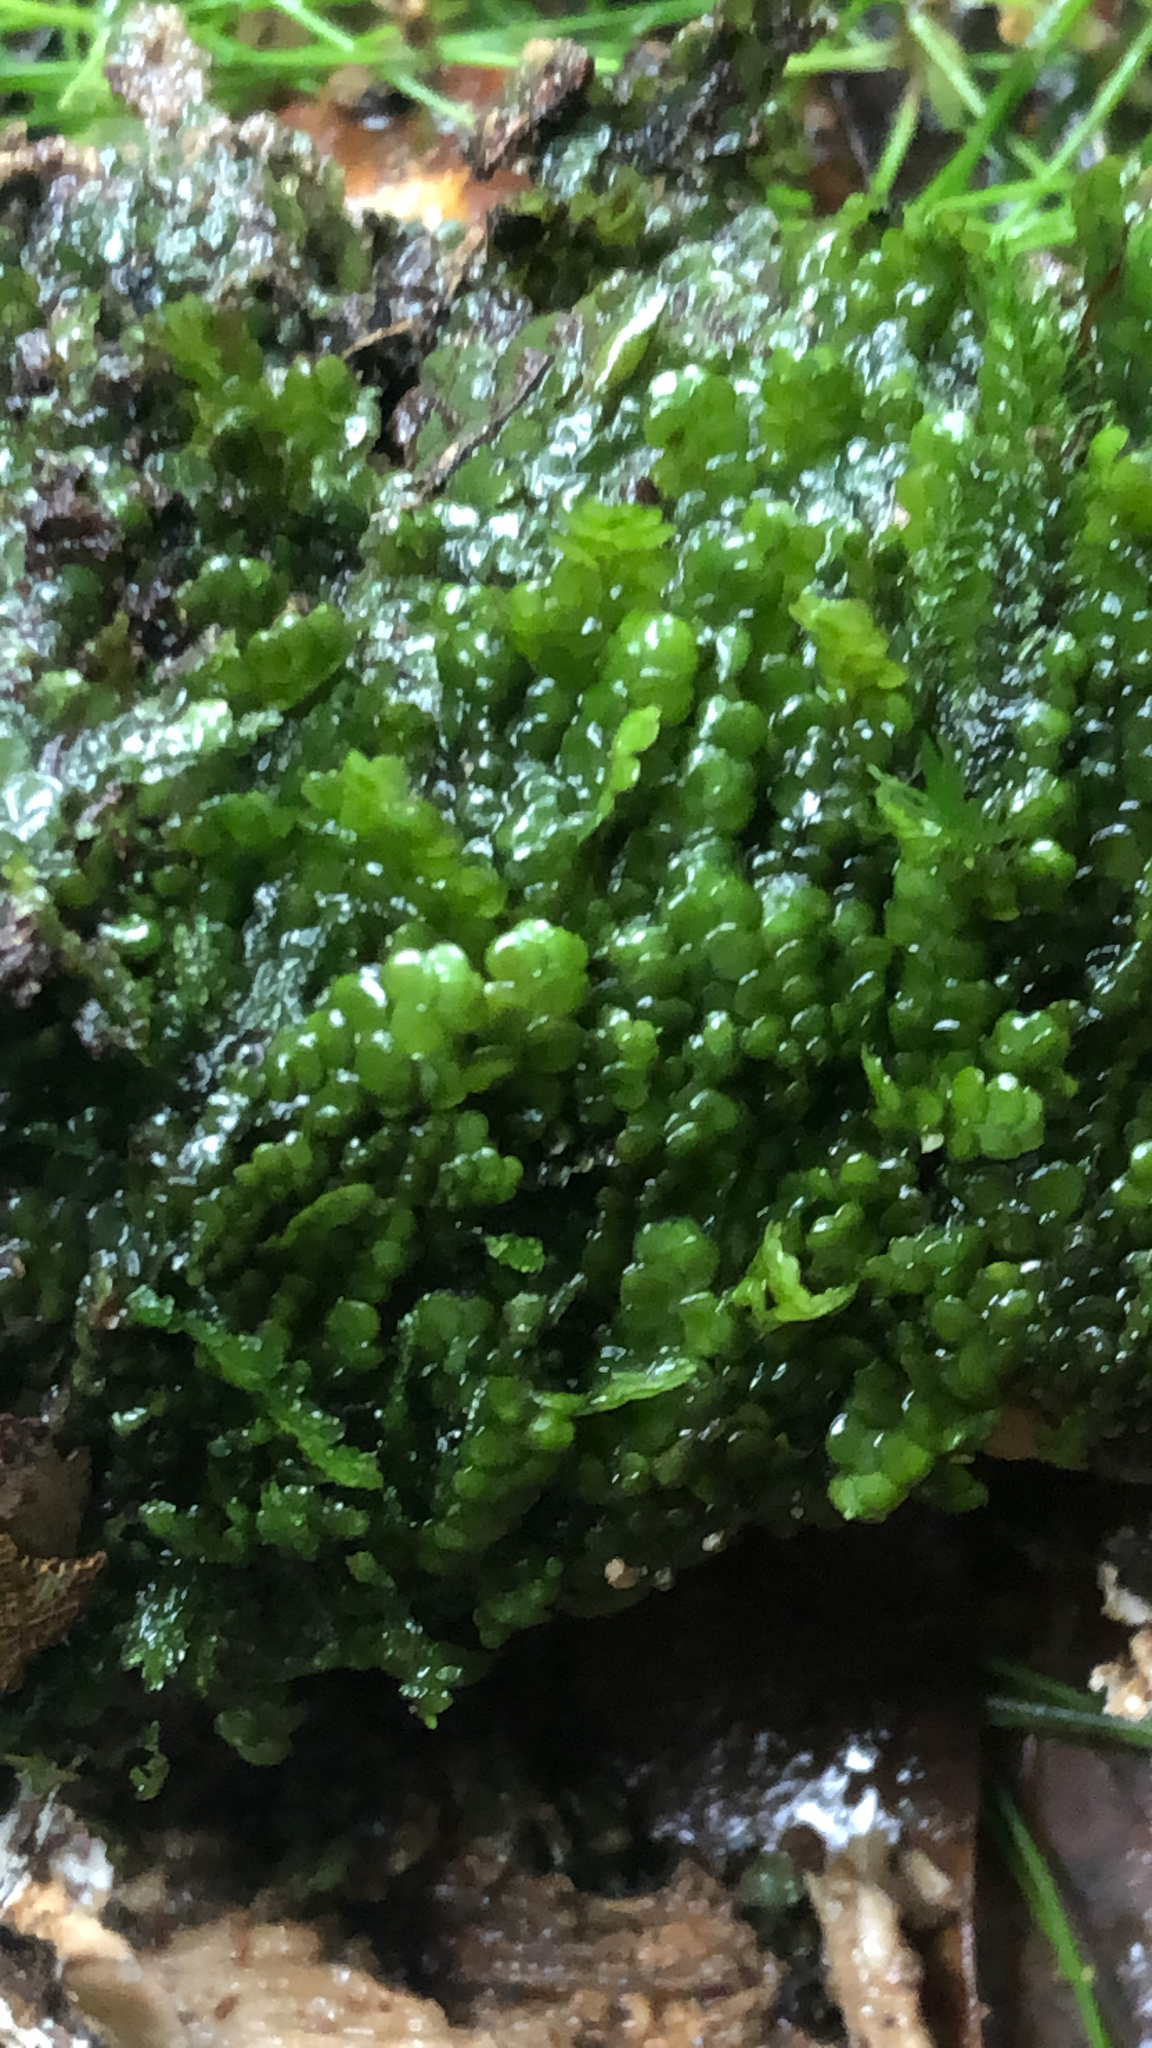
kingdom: Plantae
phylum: Marchantiophyta
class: Jungermanniopsida
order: Porellales
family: Radulaceae
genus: Radula
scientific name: Radula marginata
